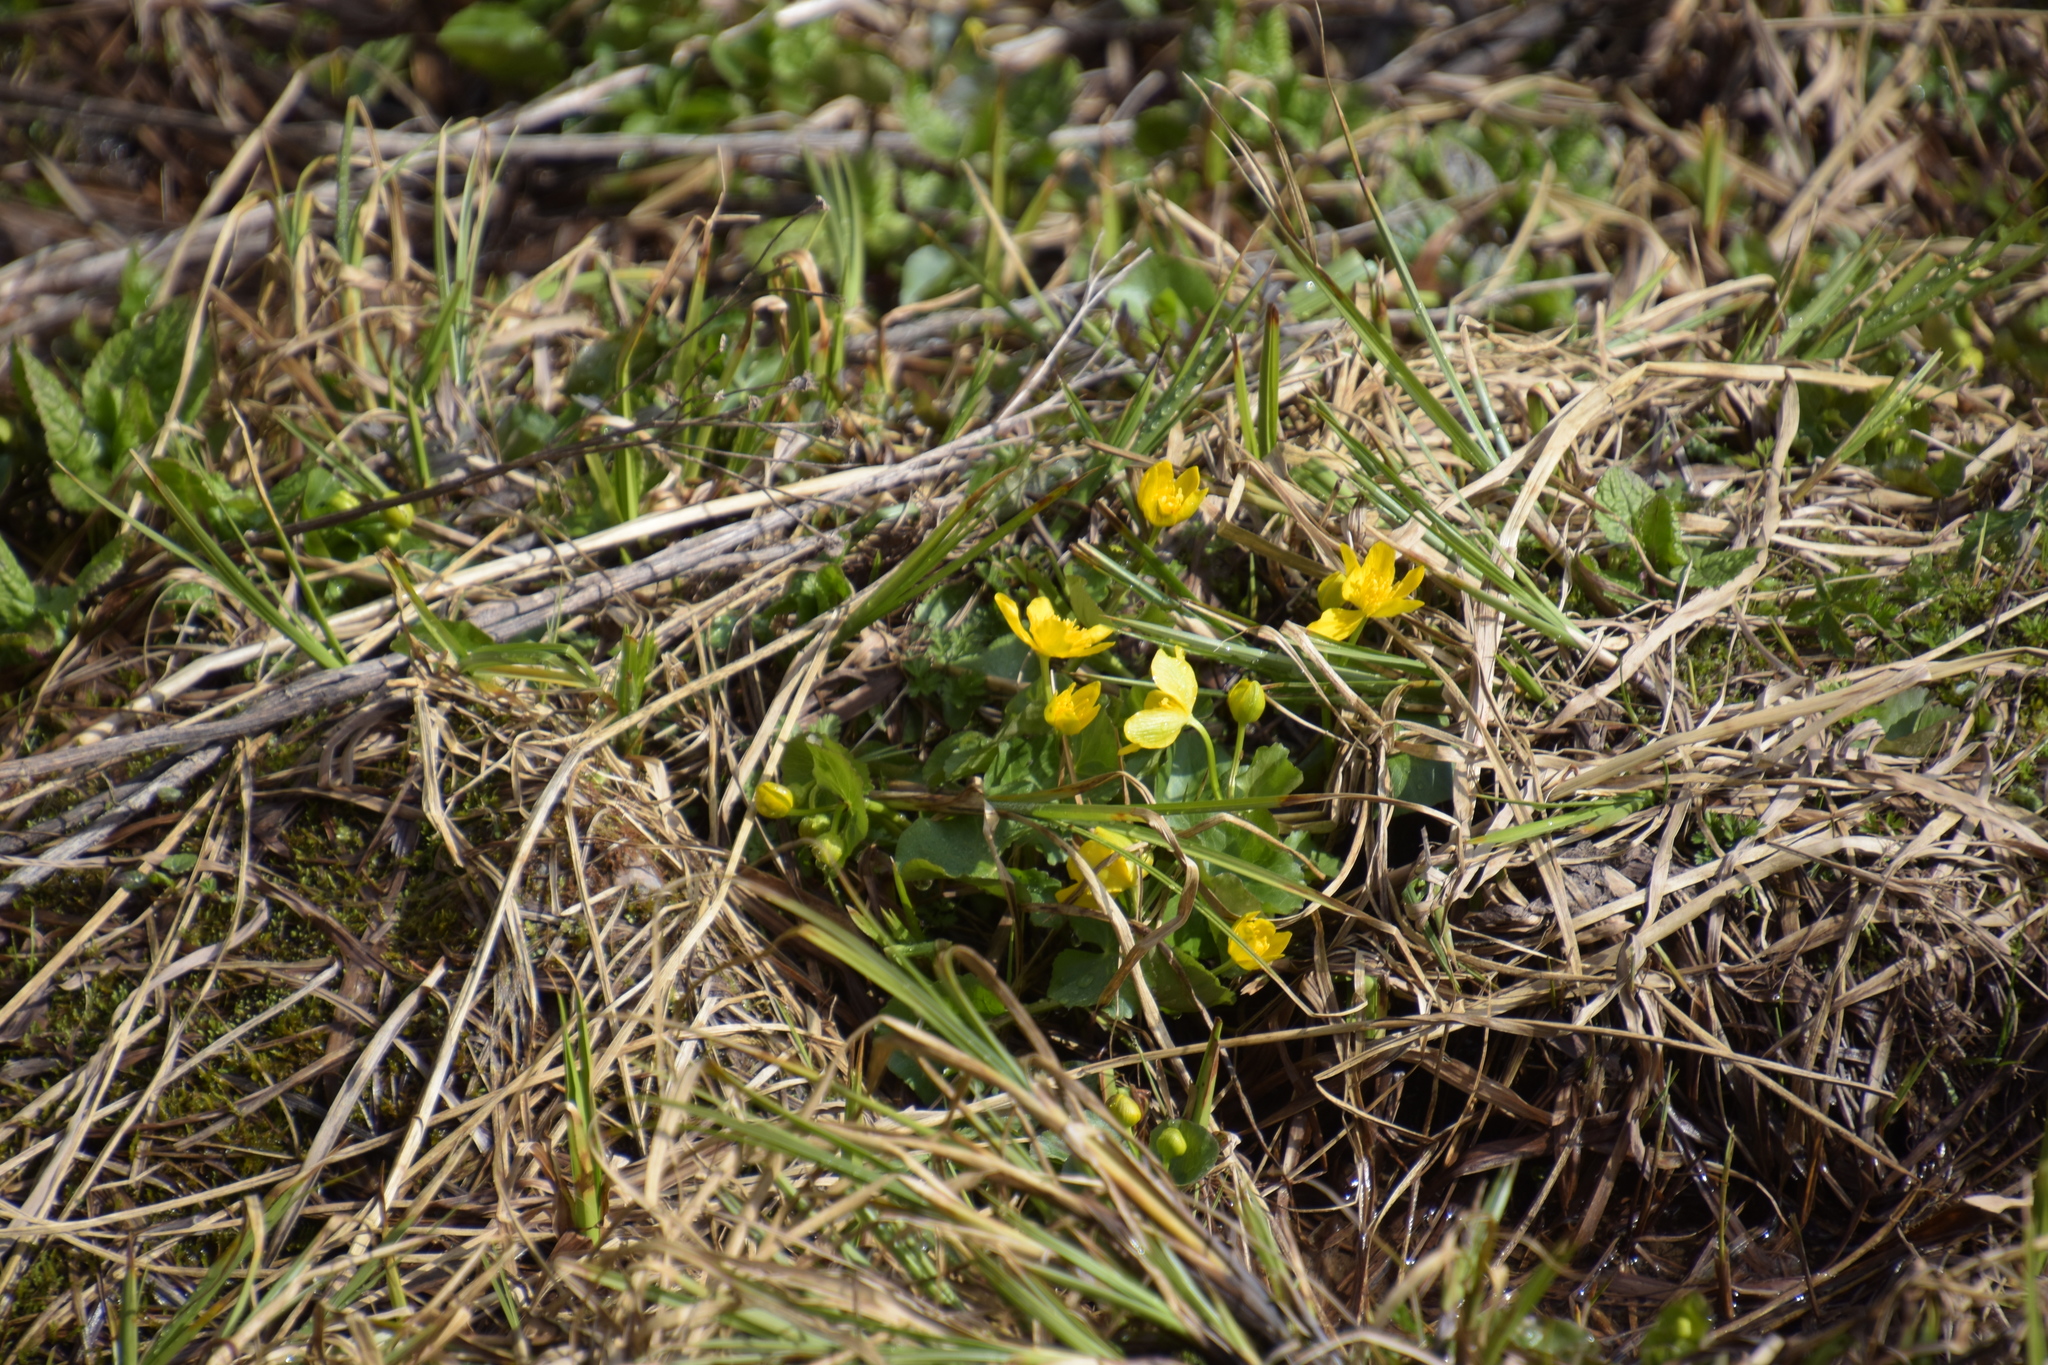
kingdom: Plantae
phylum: Tracheophyta
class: Magnoliopsida
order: Ranunculales
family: Ranunculaceae
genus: Caltha
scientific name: Caltha palustris
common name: Marsh marigold
